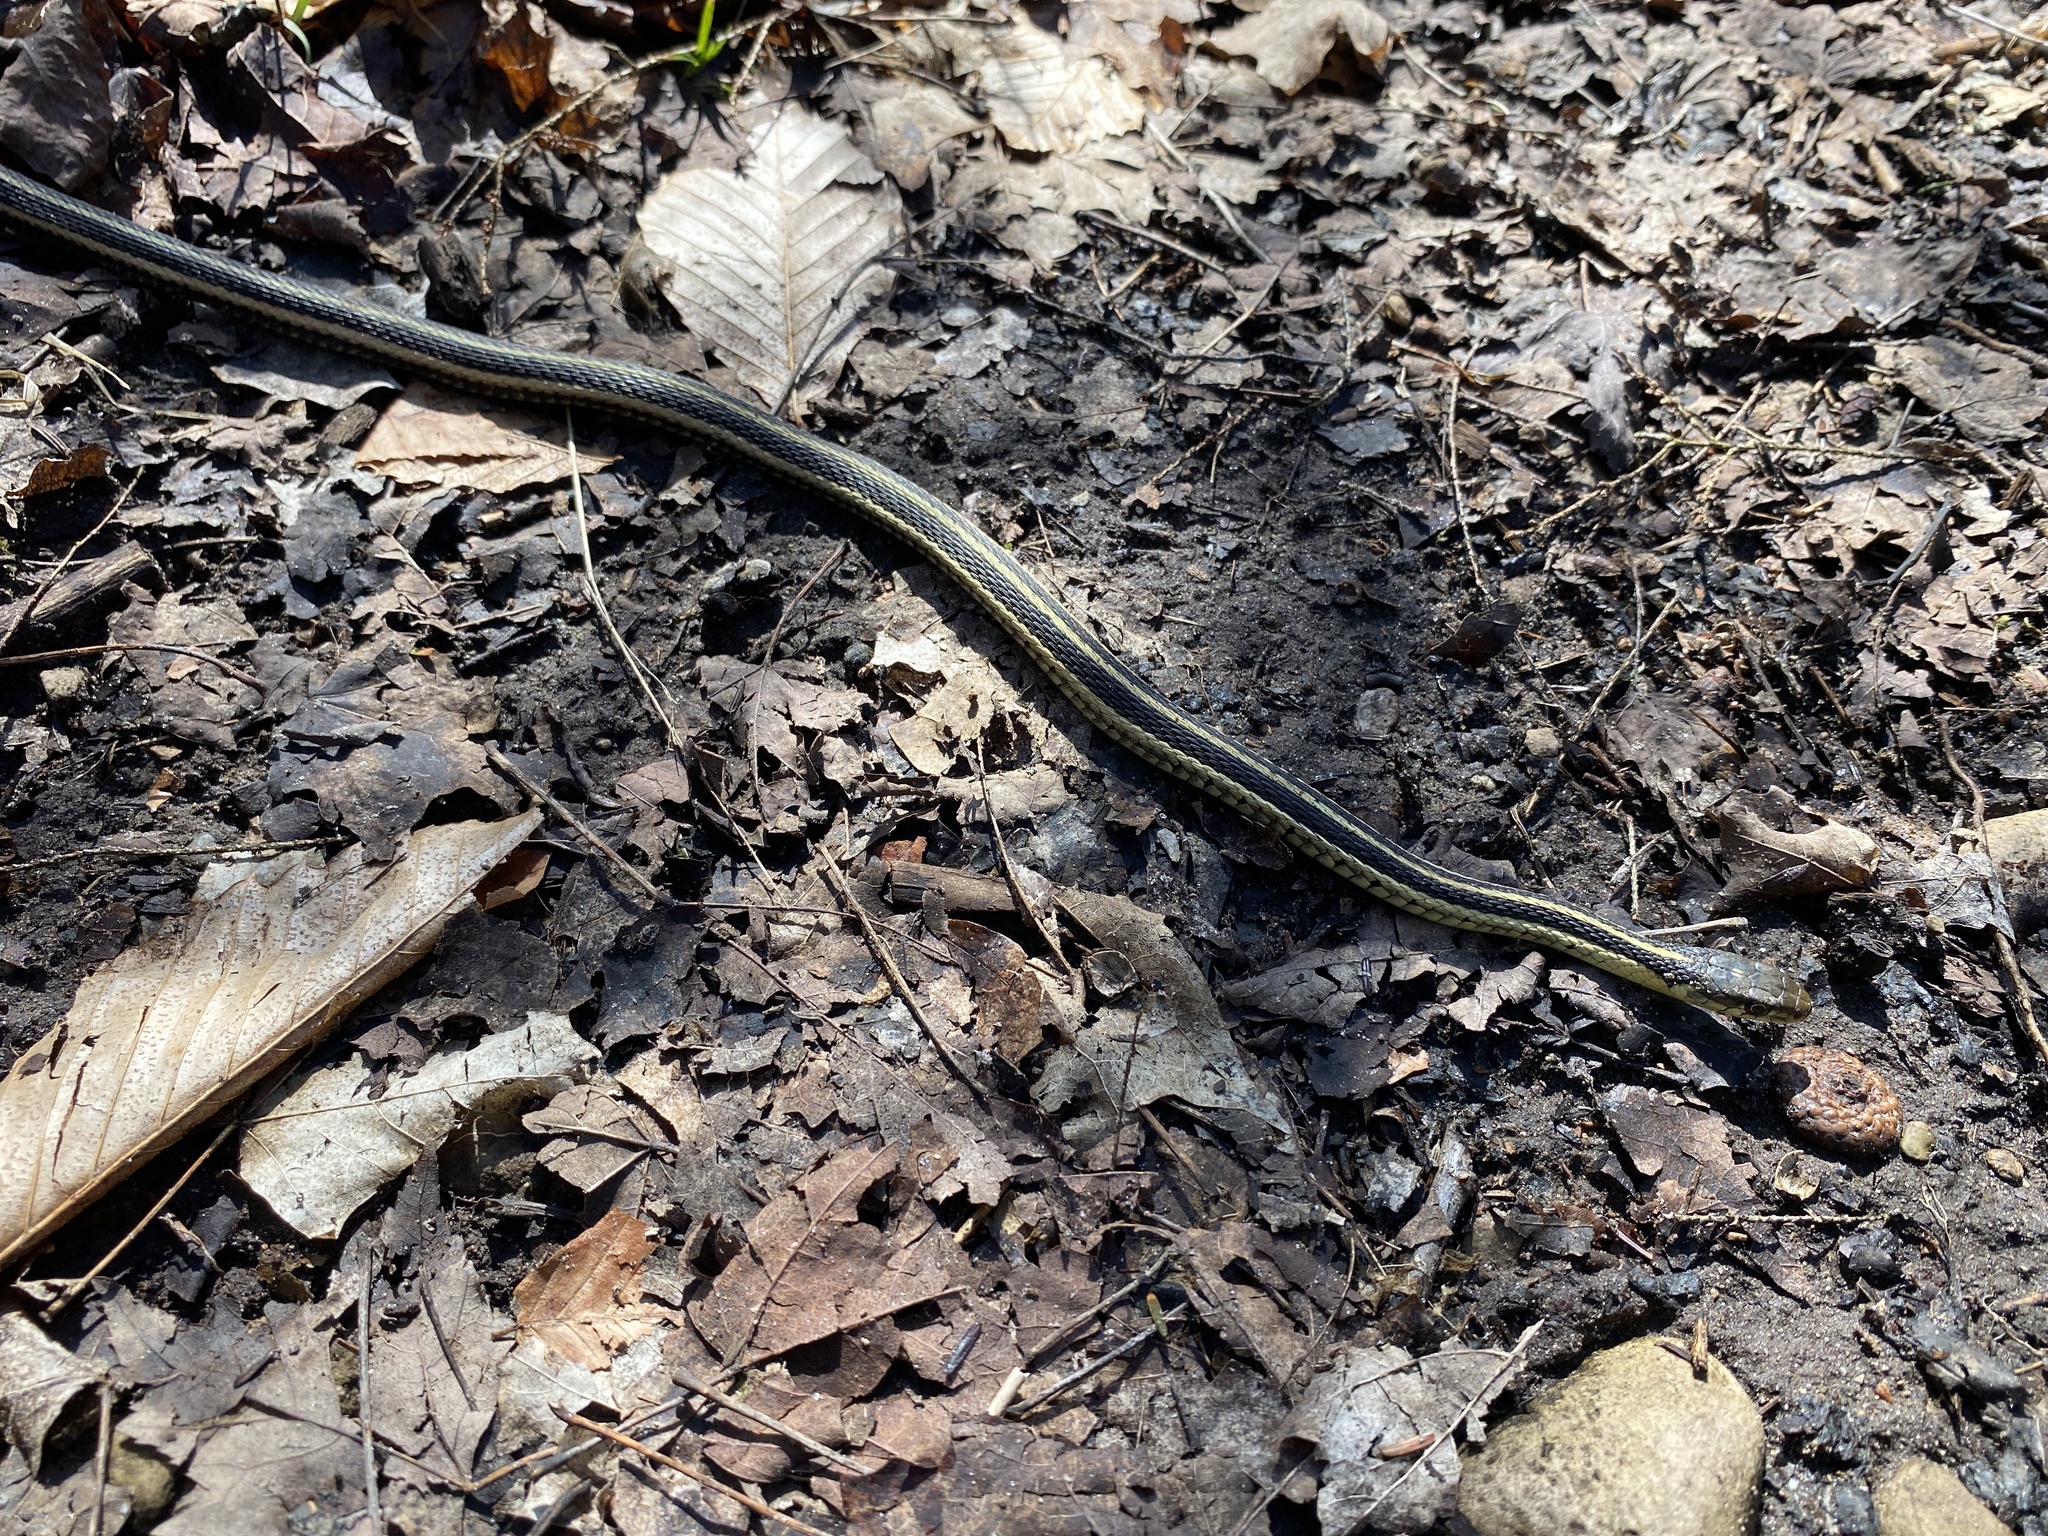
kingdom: Animalia
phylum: Chordata
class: Squamata
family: Colubridae
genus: Thamnophis
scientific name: Thamnophis sirtalis
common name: Common garter snake
